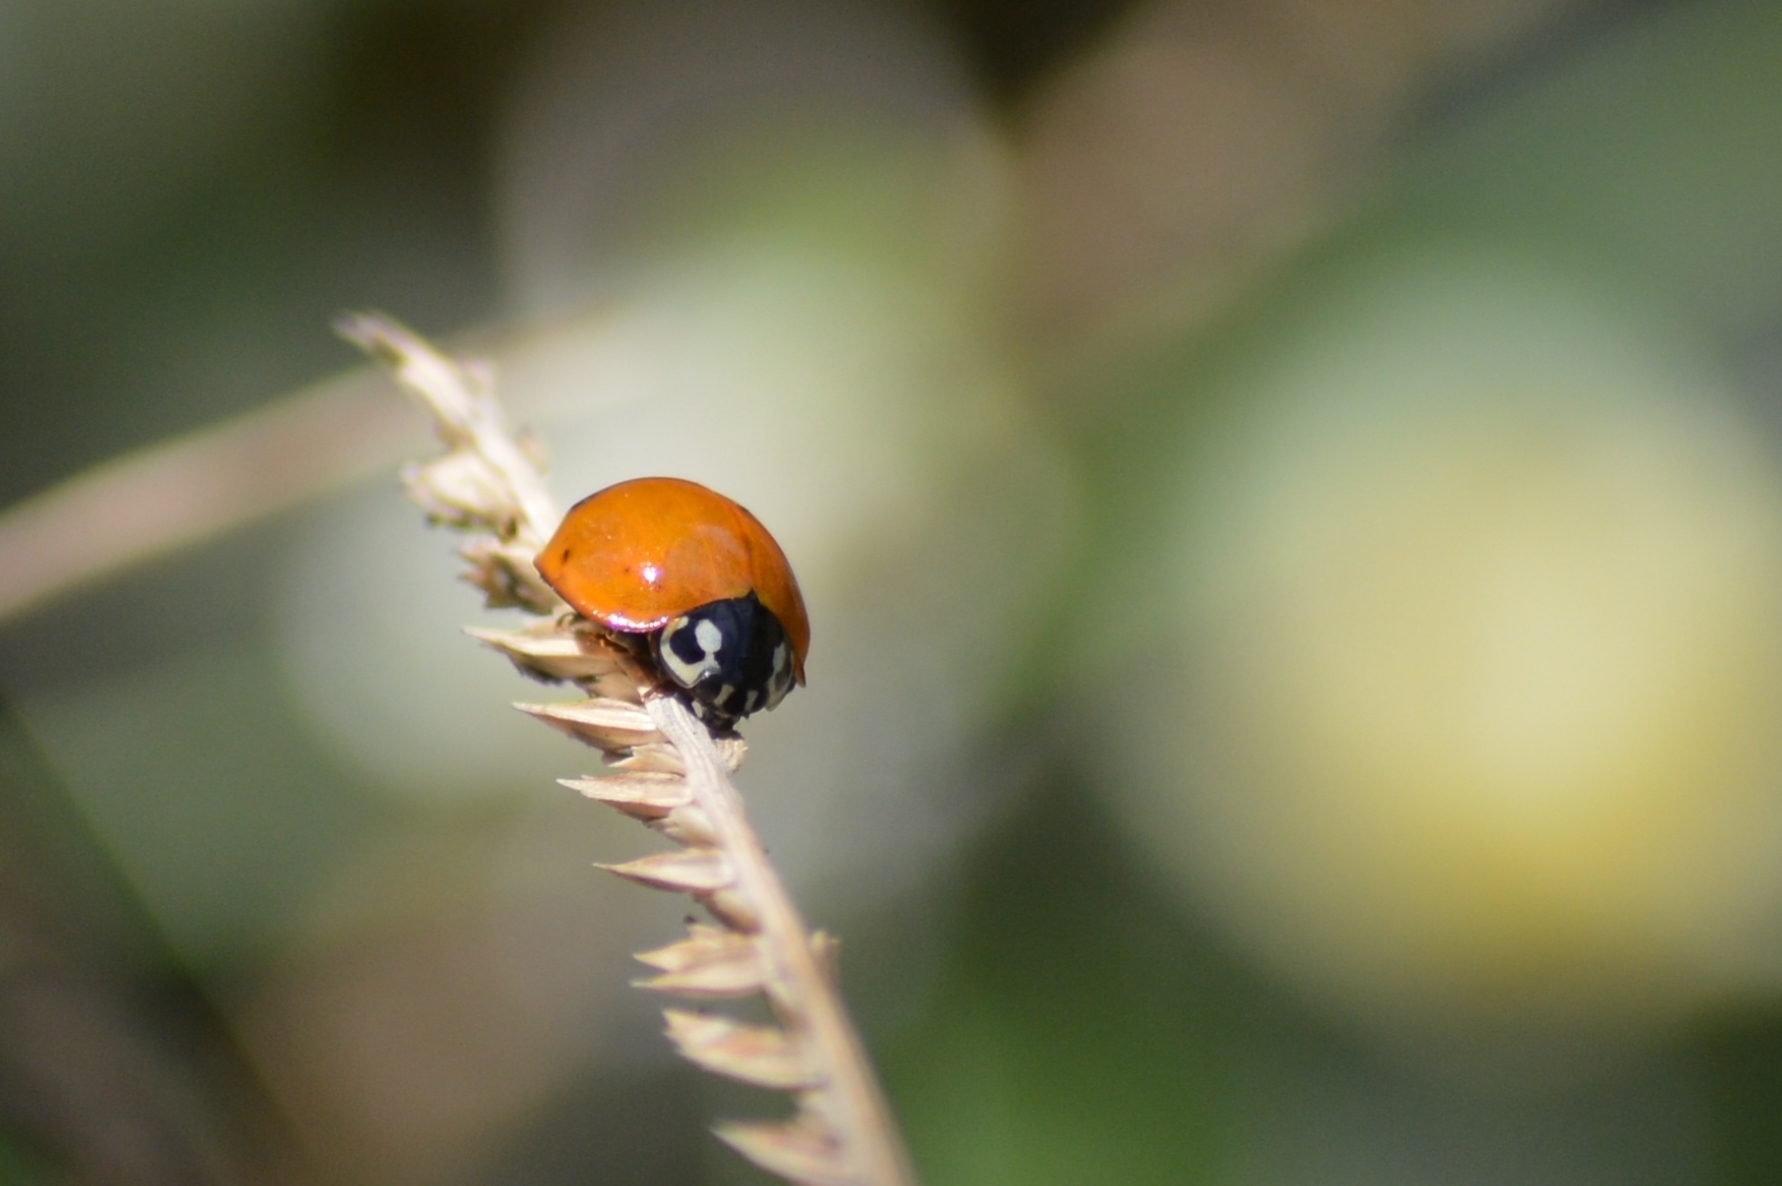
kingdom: Animalia
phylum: Arthropoda
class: Insecta
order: Coleoptera
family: Coccinellidae
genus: Cycloneda
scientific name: Cycloneda sanguinea
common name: Ladybird beetle
